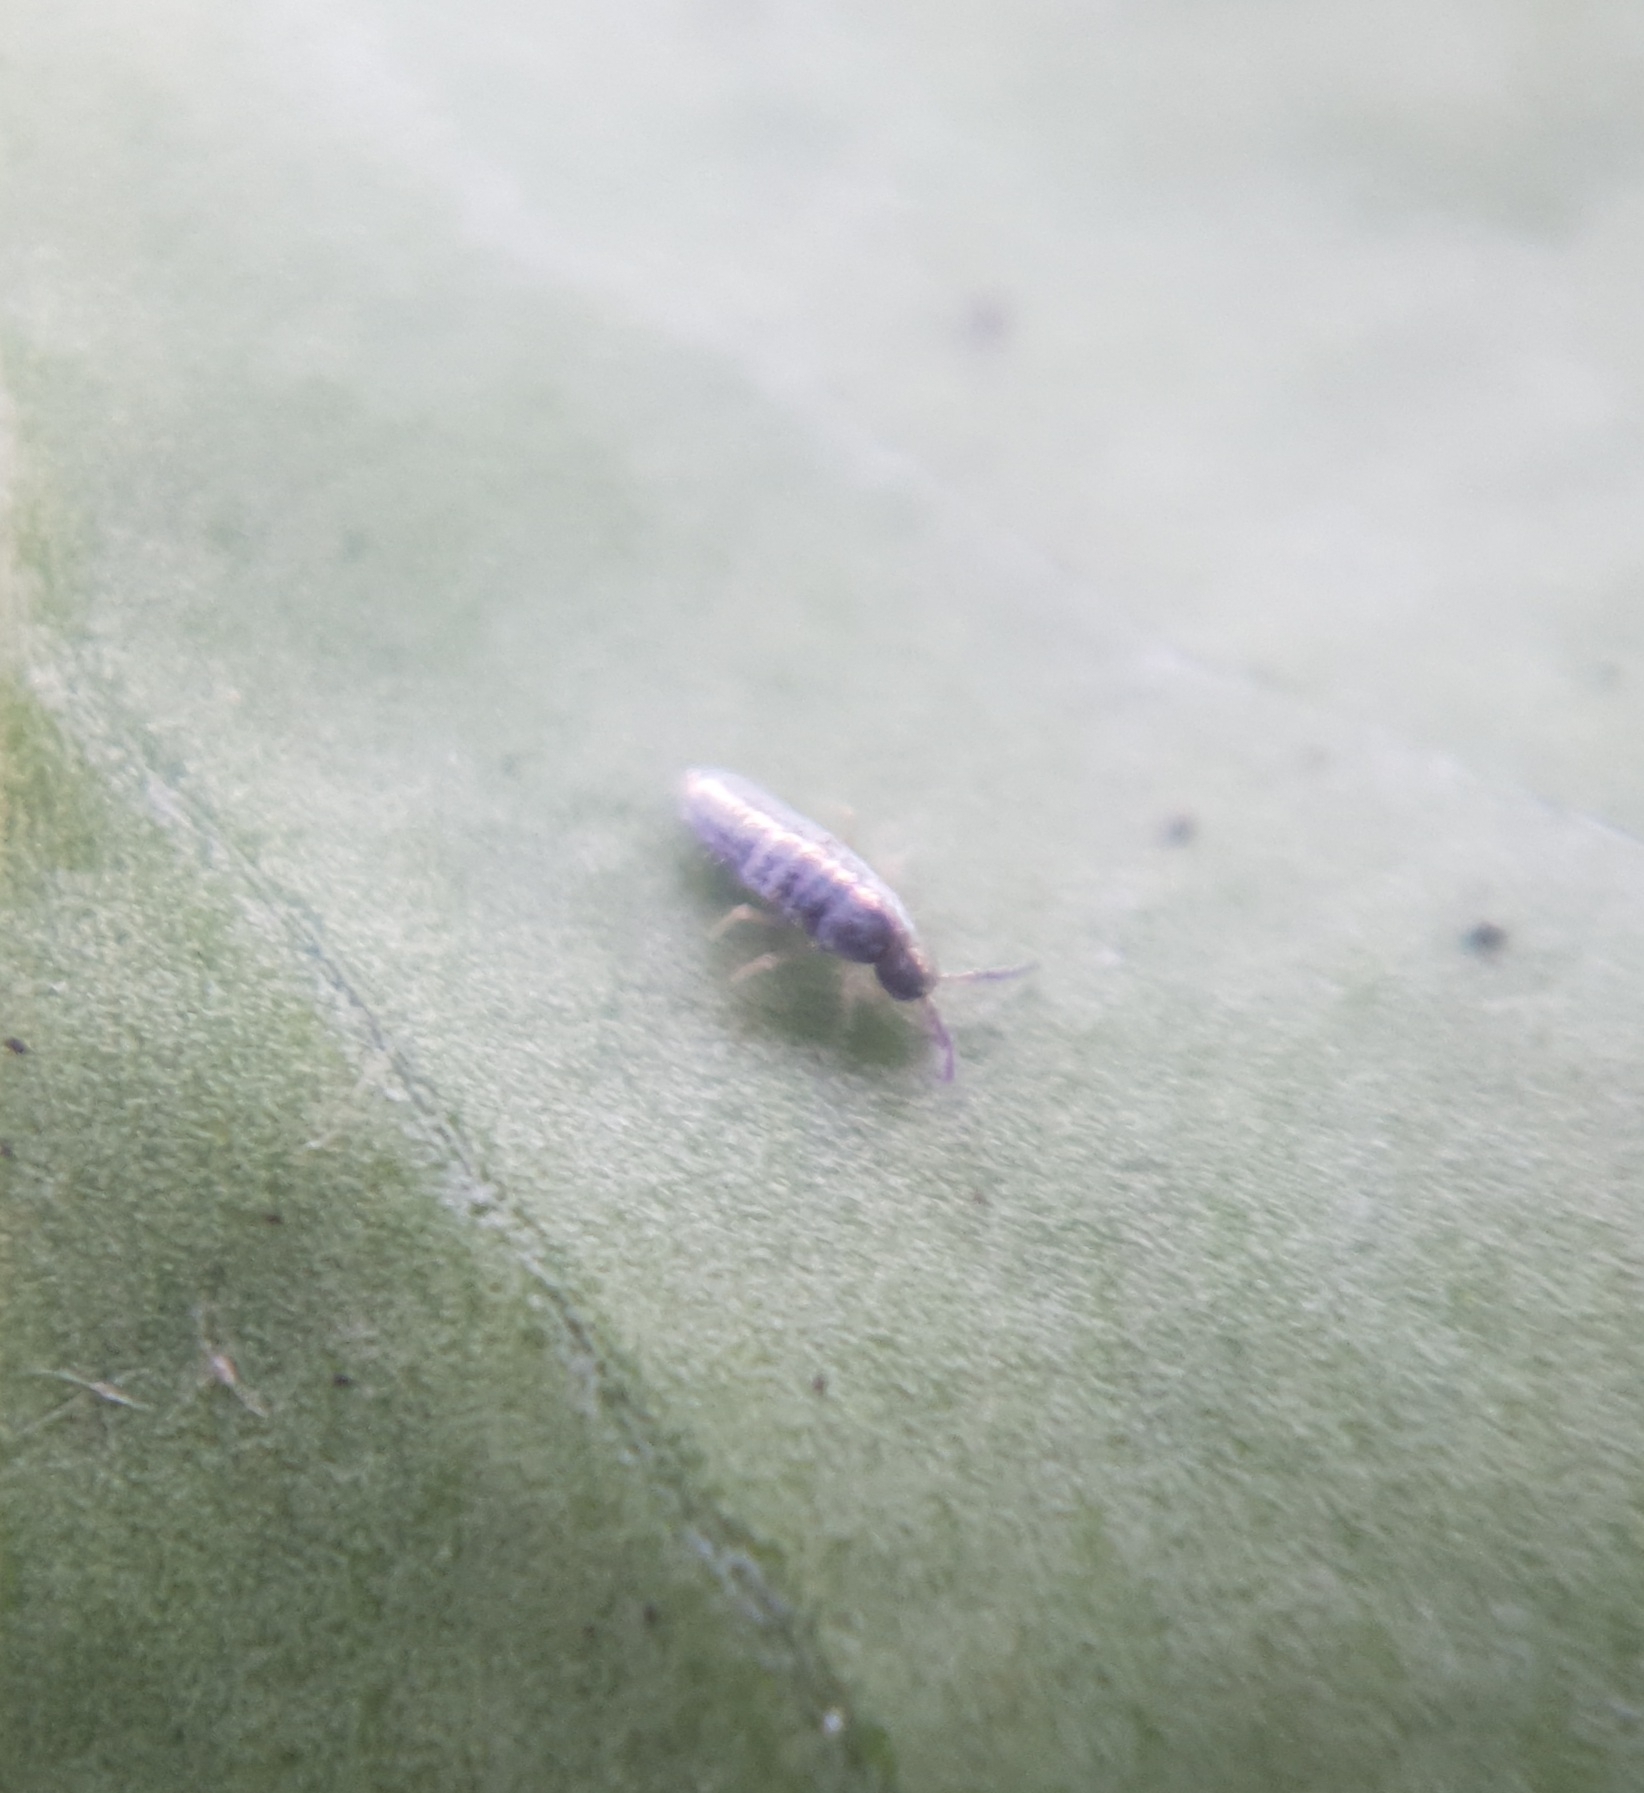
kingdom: Animalia
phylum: Arthropoda
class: Collembola
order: Entomobryomorpha
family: Entomobryidae
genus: Lepidocyrtus
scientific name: Lepidocyrtus
